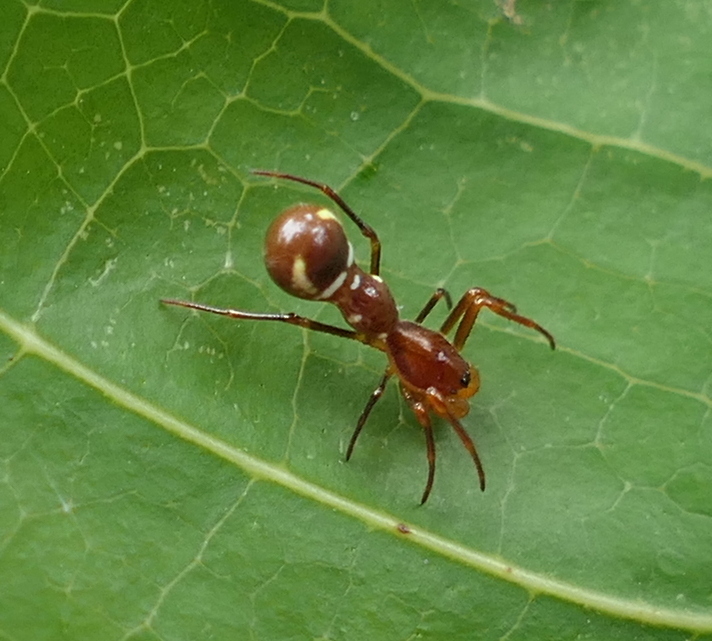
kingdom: Animalia
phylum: Arthropoda
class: Arachnida
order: Araneae
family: Araneidae
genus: Micrathena
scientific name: Micrathena schreibersi
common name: Orb weavers
